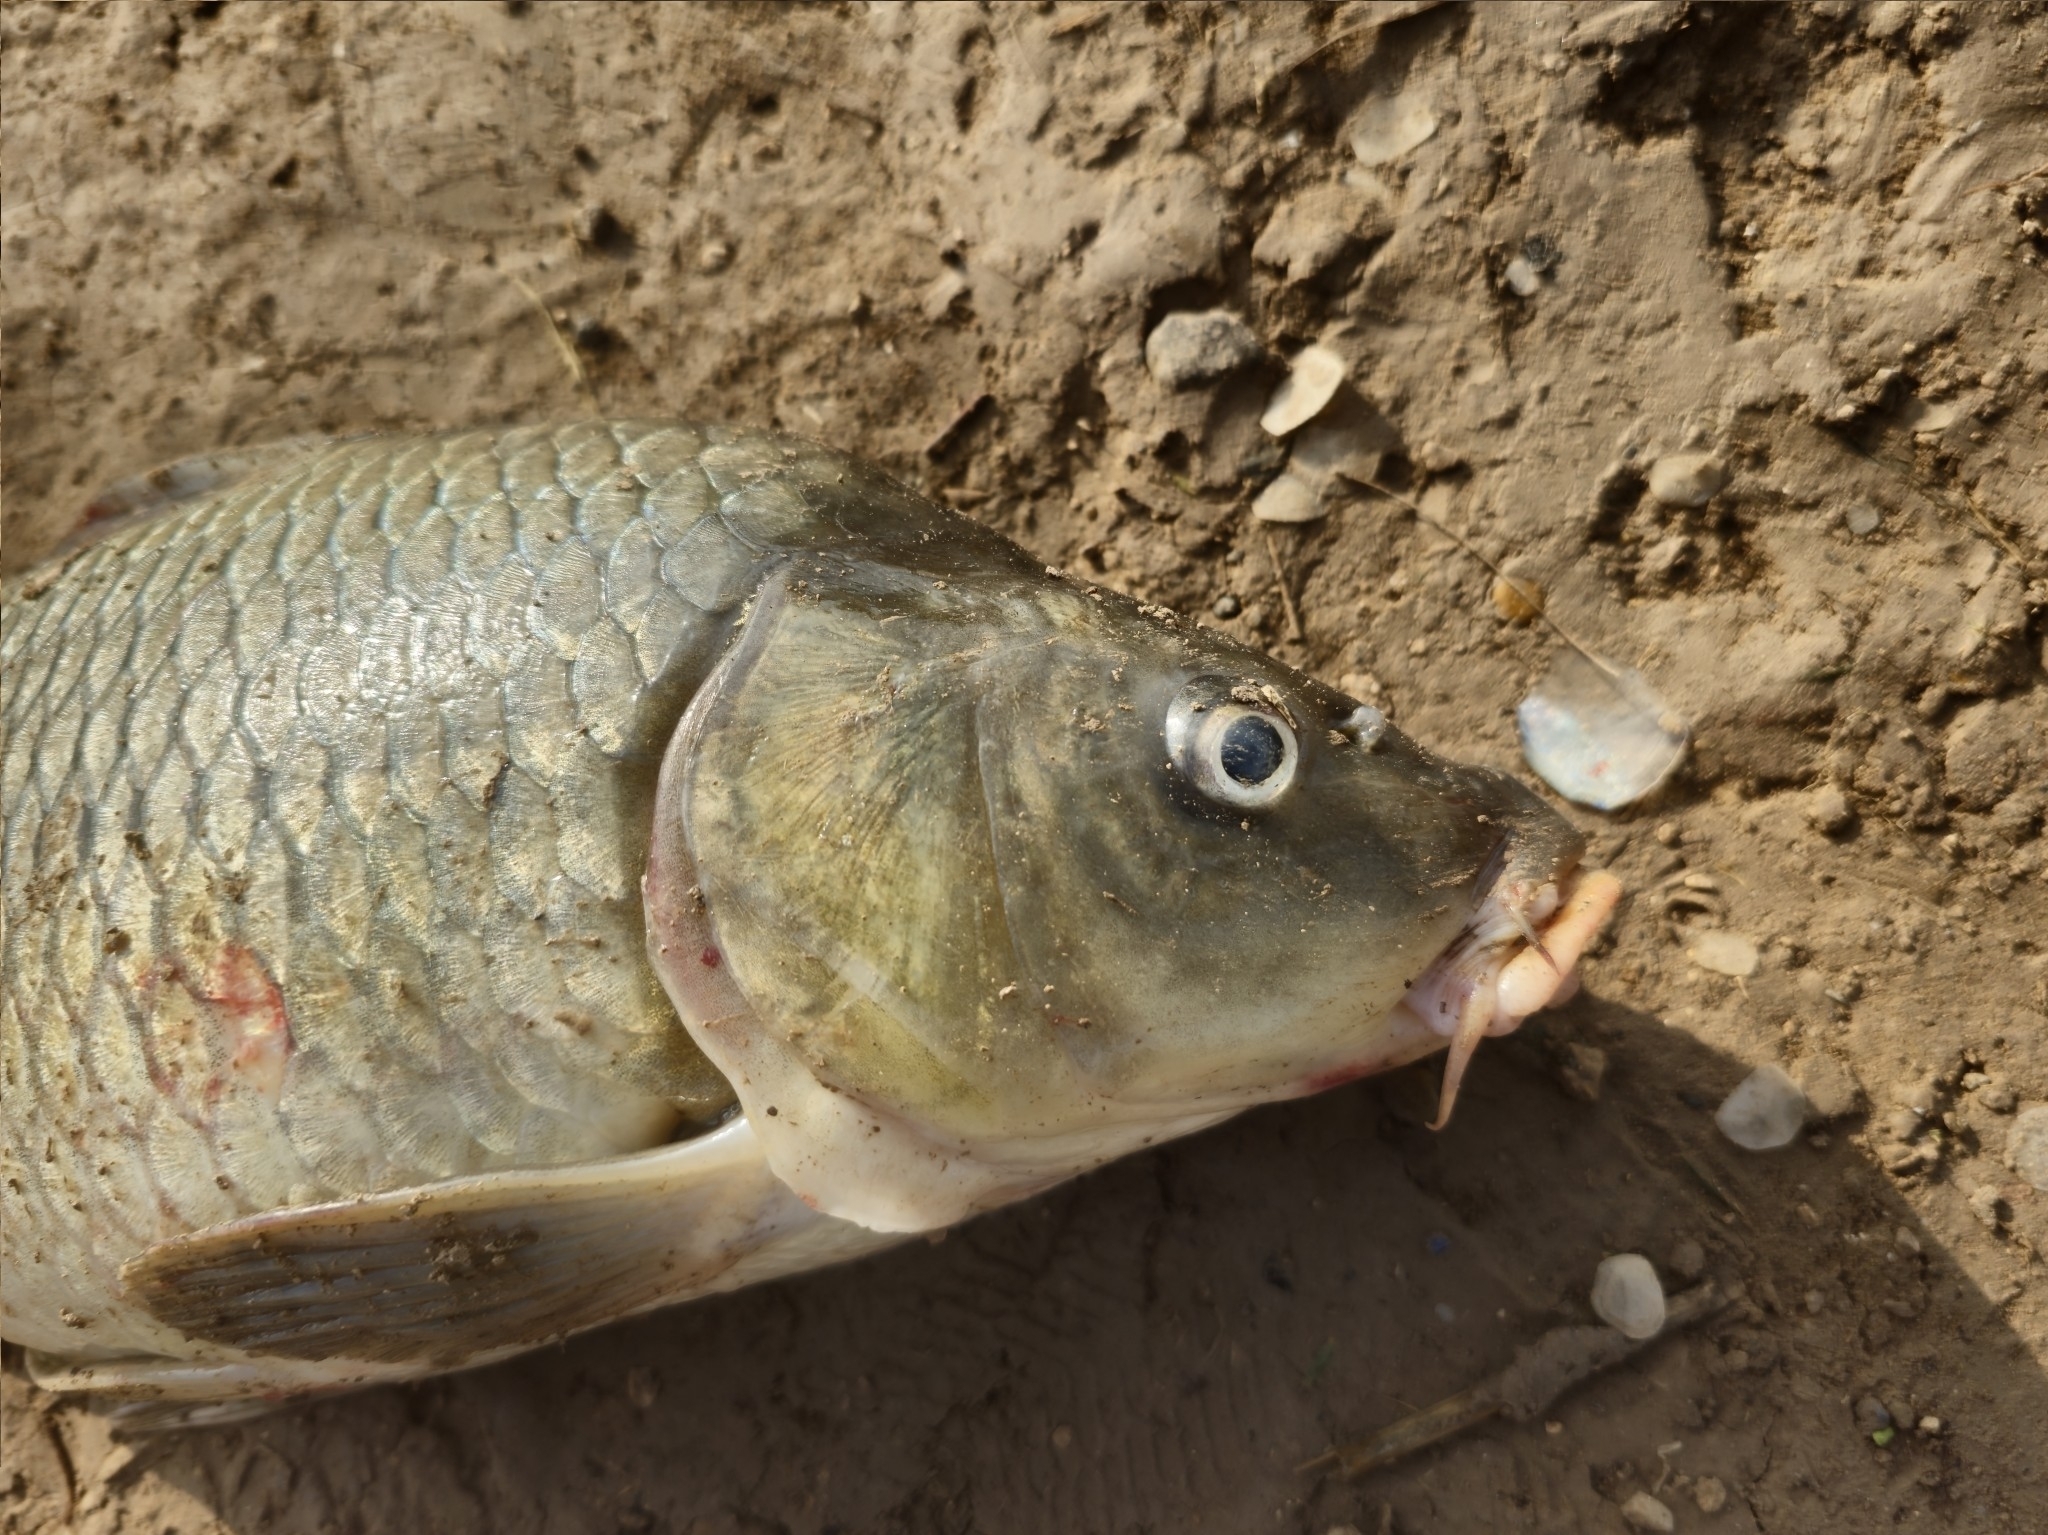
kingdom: Animalia
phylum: Chordata
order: Cypriniformes
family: Cyprinidae
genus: Cyprinus
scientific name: Cyprinus carpio
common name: Common carp
